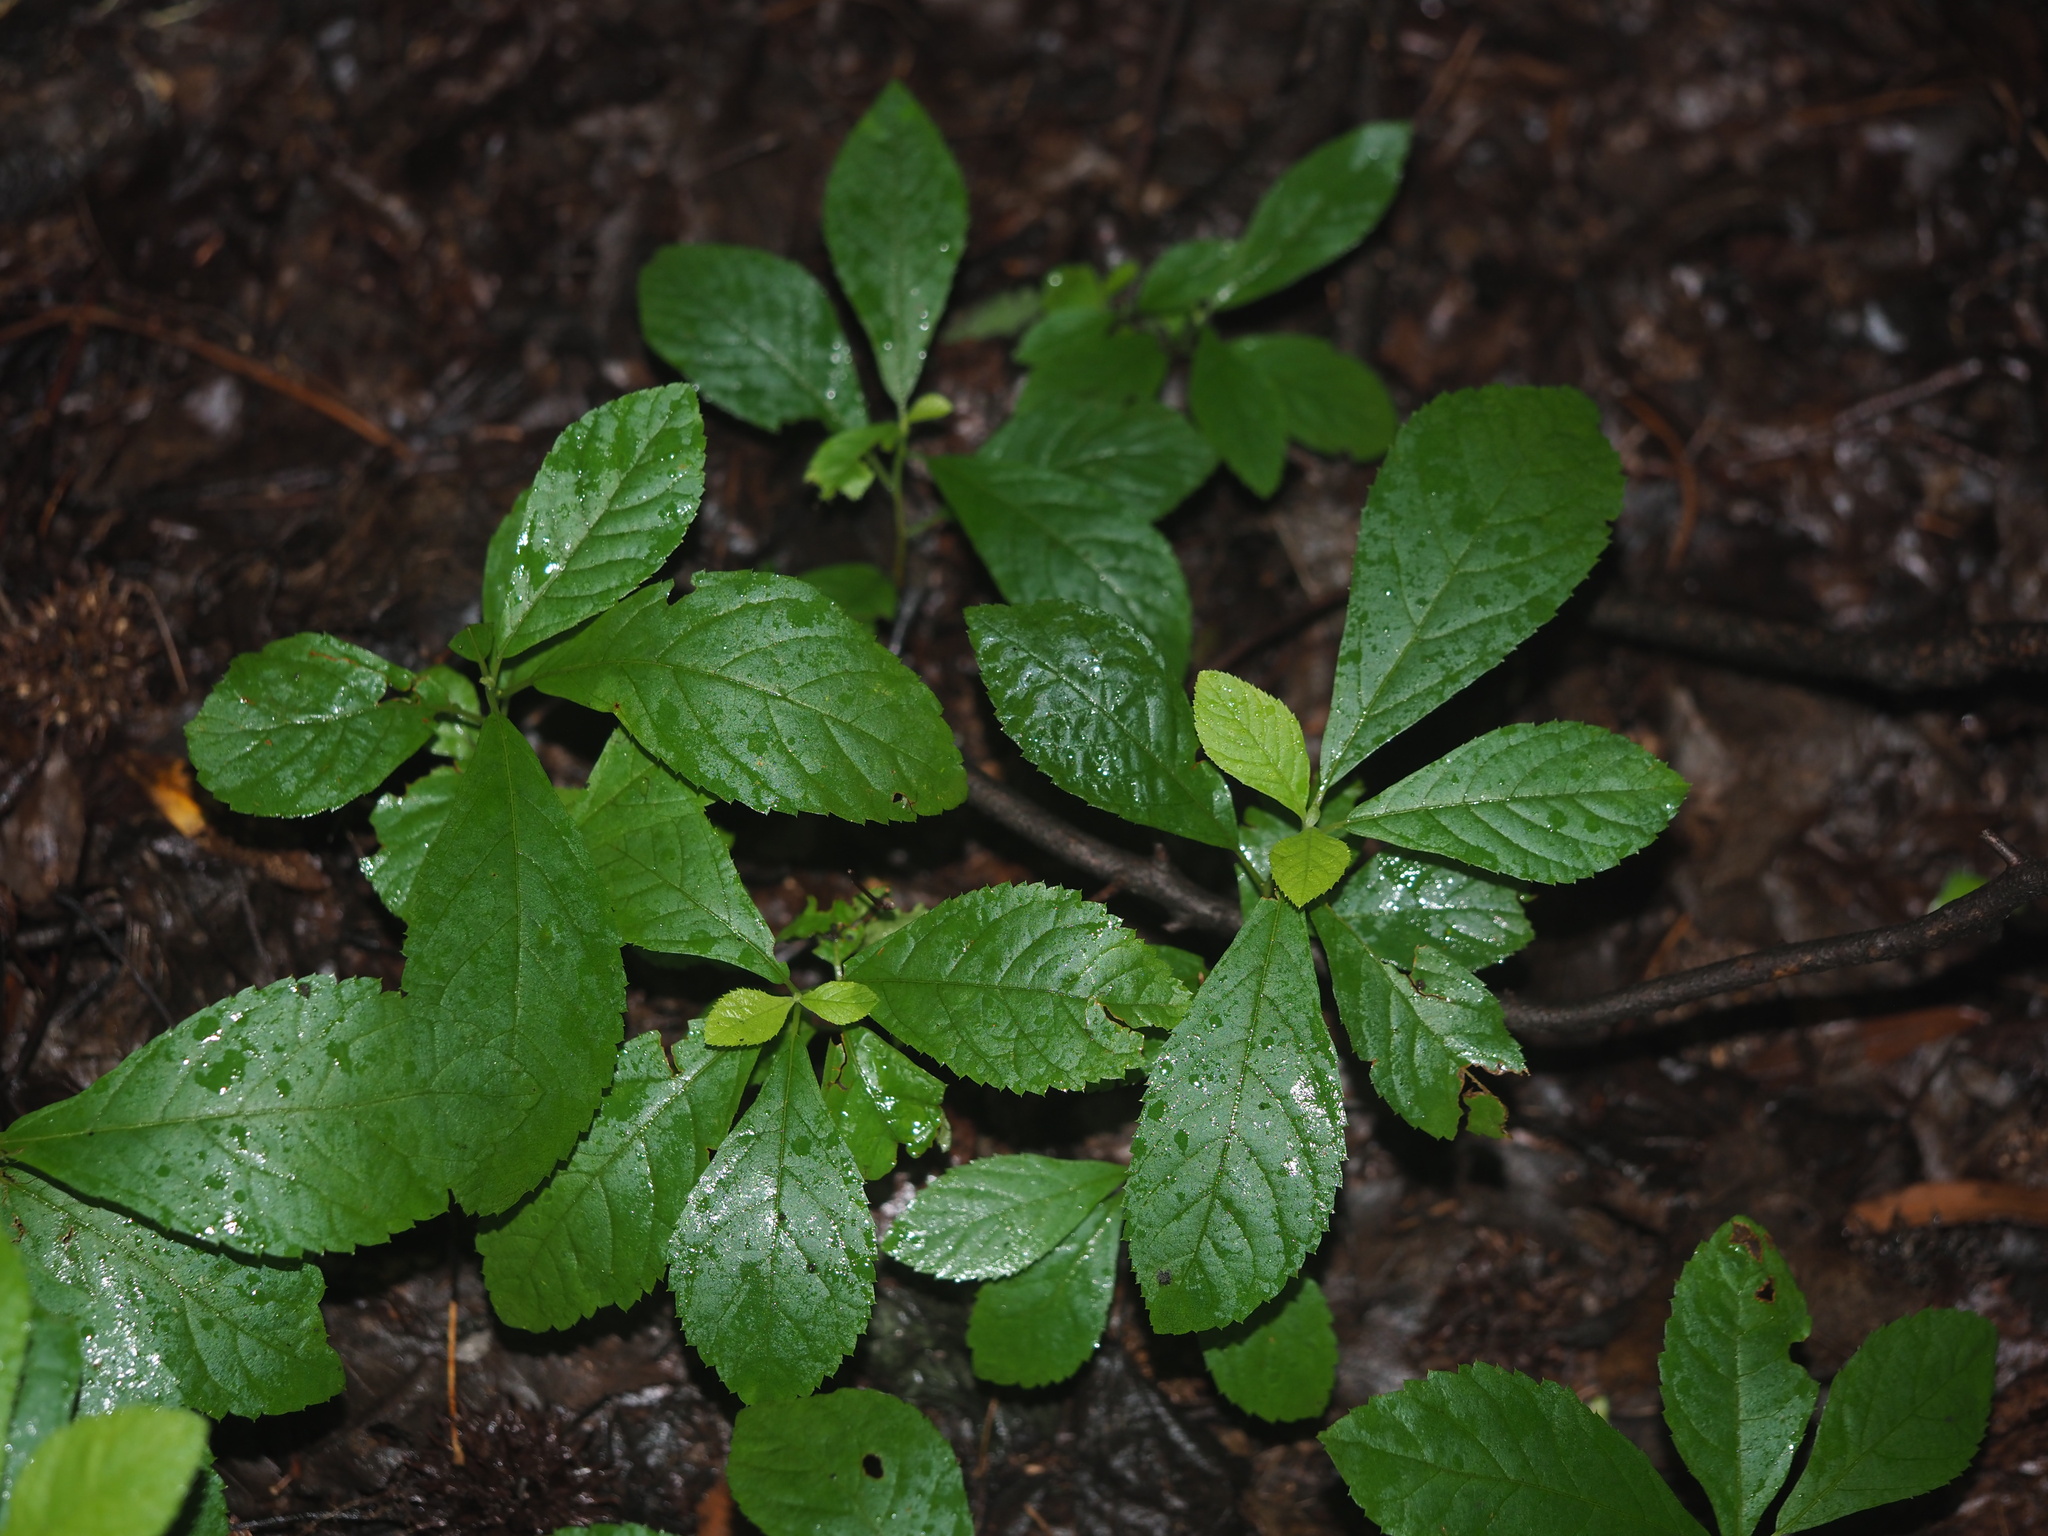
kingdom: Plantae
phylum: Tracheophyta
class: Magnoliopsida
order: Ericales
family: Clethraceae
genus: Clethra
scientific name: Clethra alnifolia
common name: Sweet pepperbush
